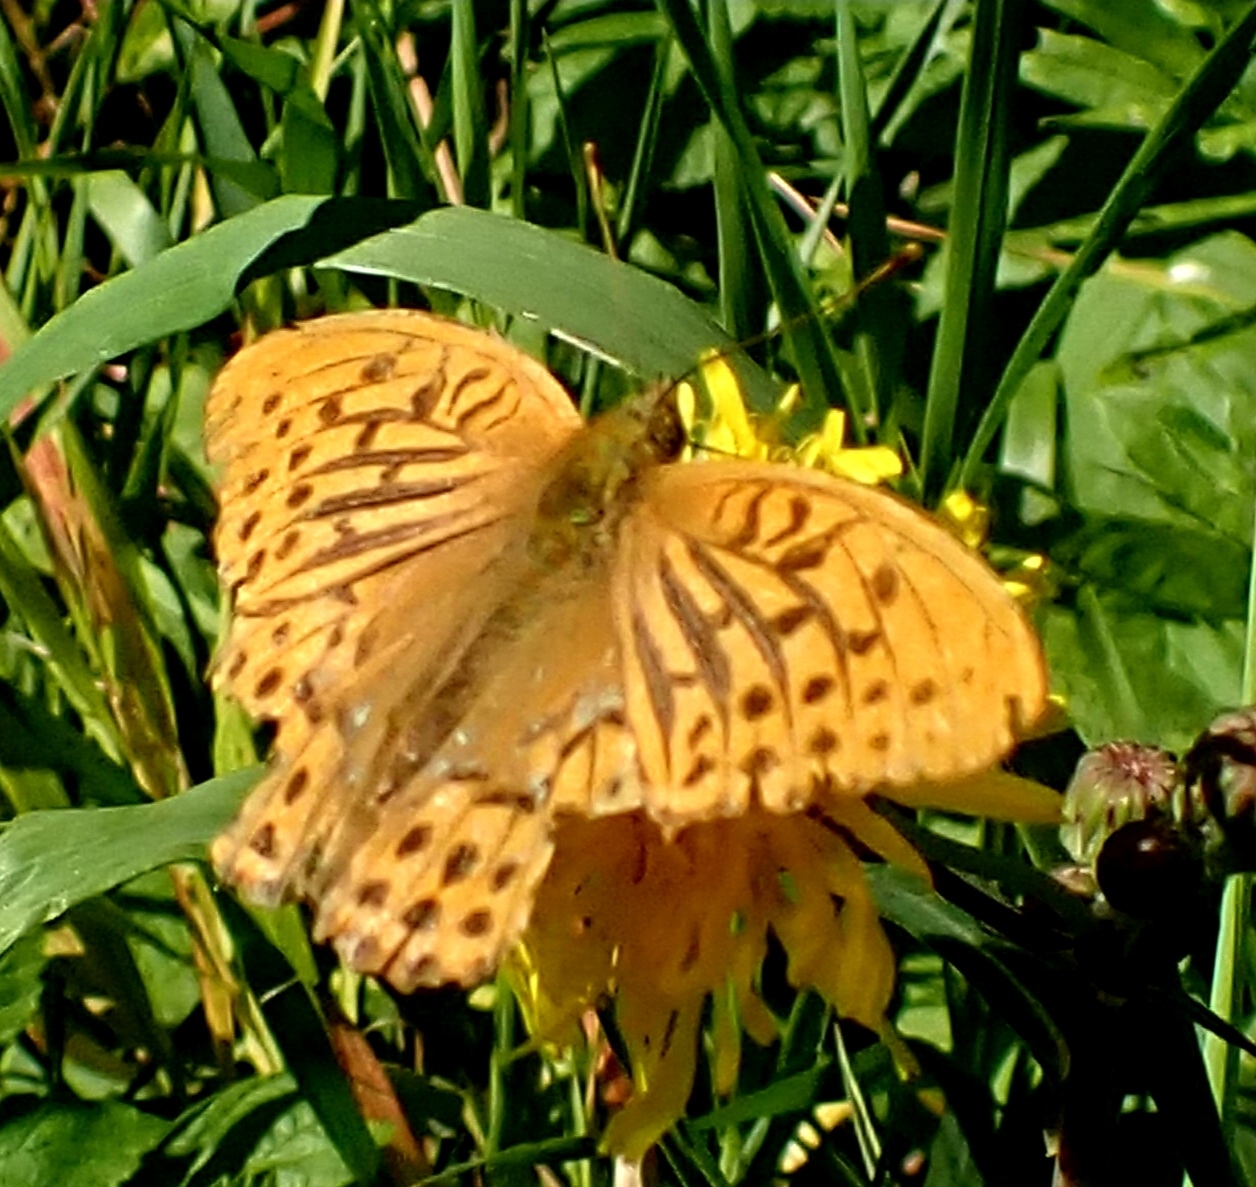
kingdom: Animalia
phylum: Arthropoda
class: Insecta
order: Lepidoptera
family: Nymphalidae
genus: Argynnis
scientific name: Argynnis paphia
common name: Silver-washed fritillary
